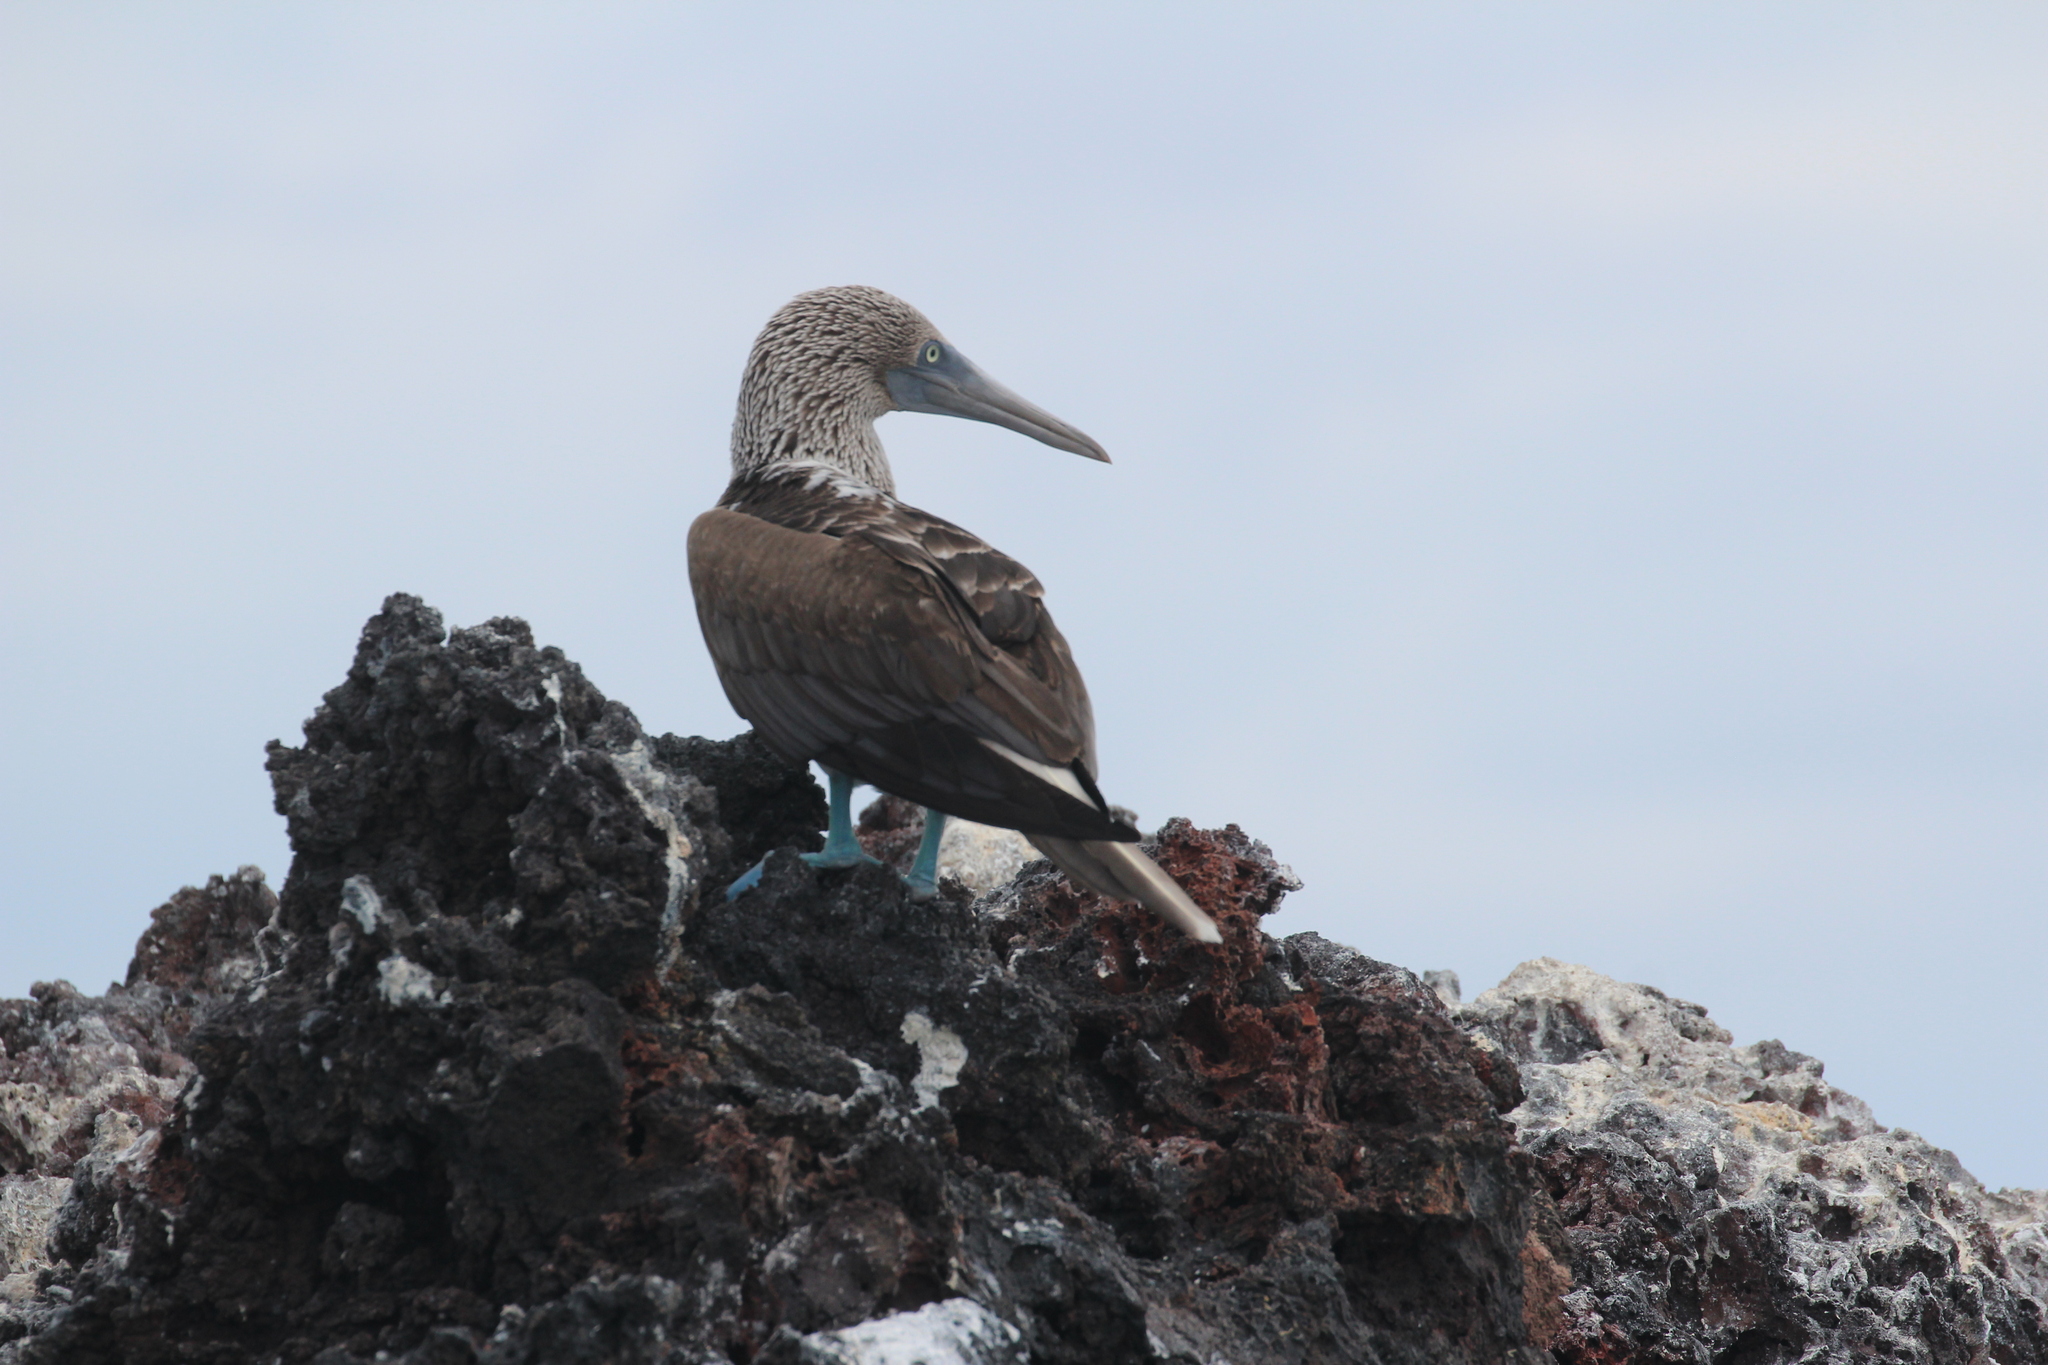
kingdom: Animalia
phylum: Chordata
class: Aves
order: Suliformes
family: Sulidae
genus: Sula
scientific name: Sula nebouxii
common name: Blue-footed booby
